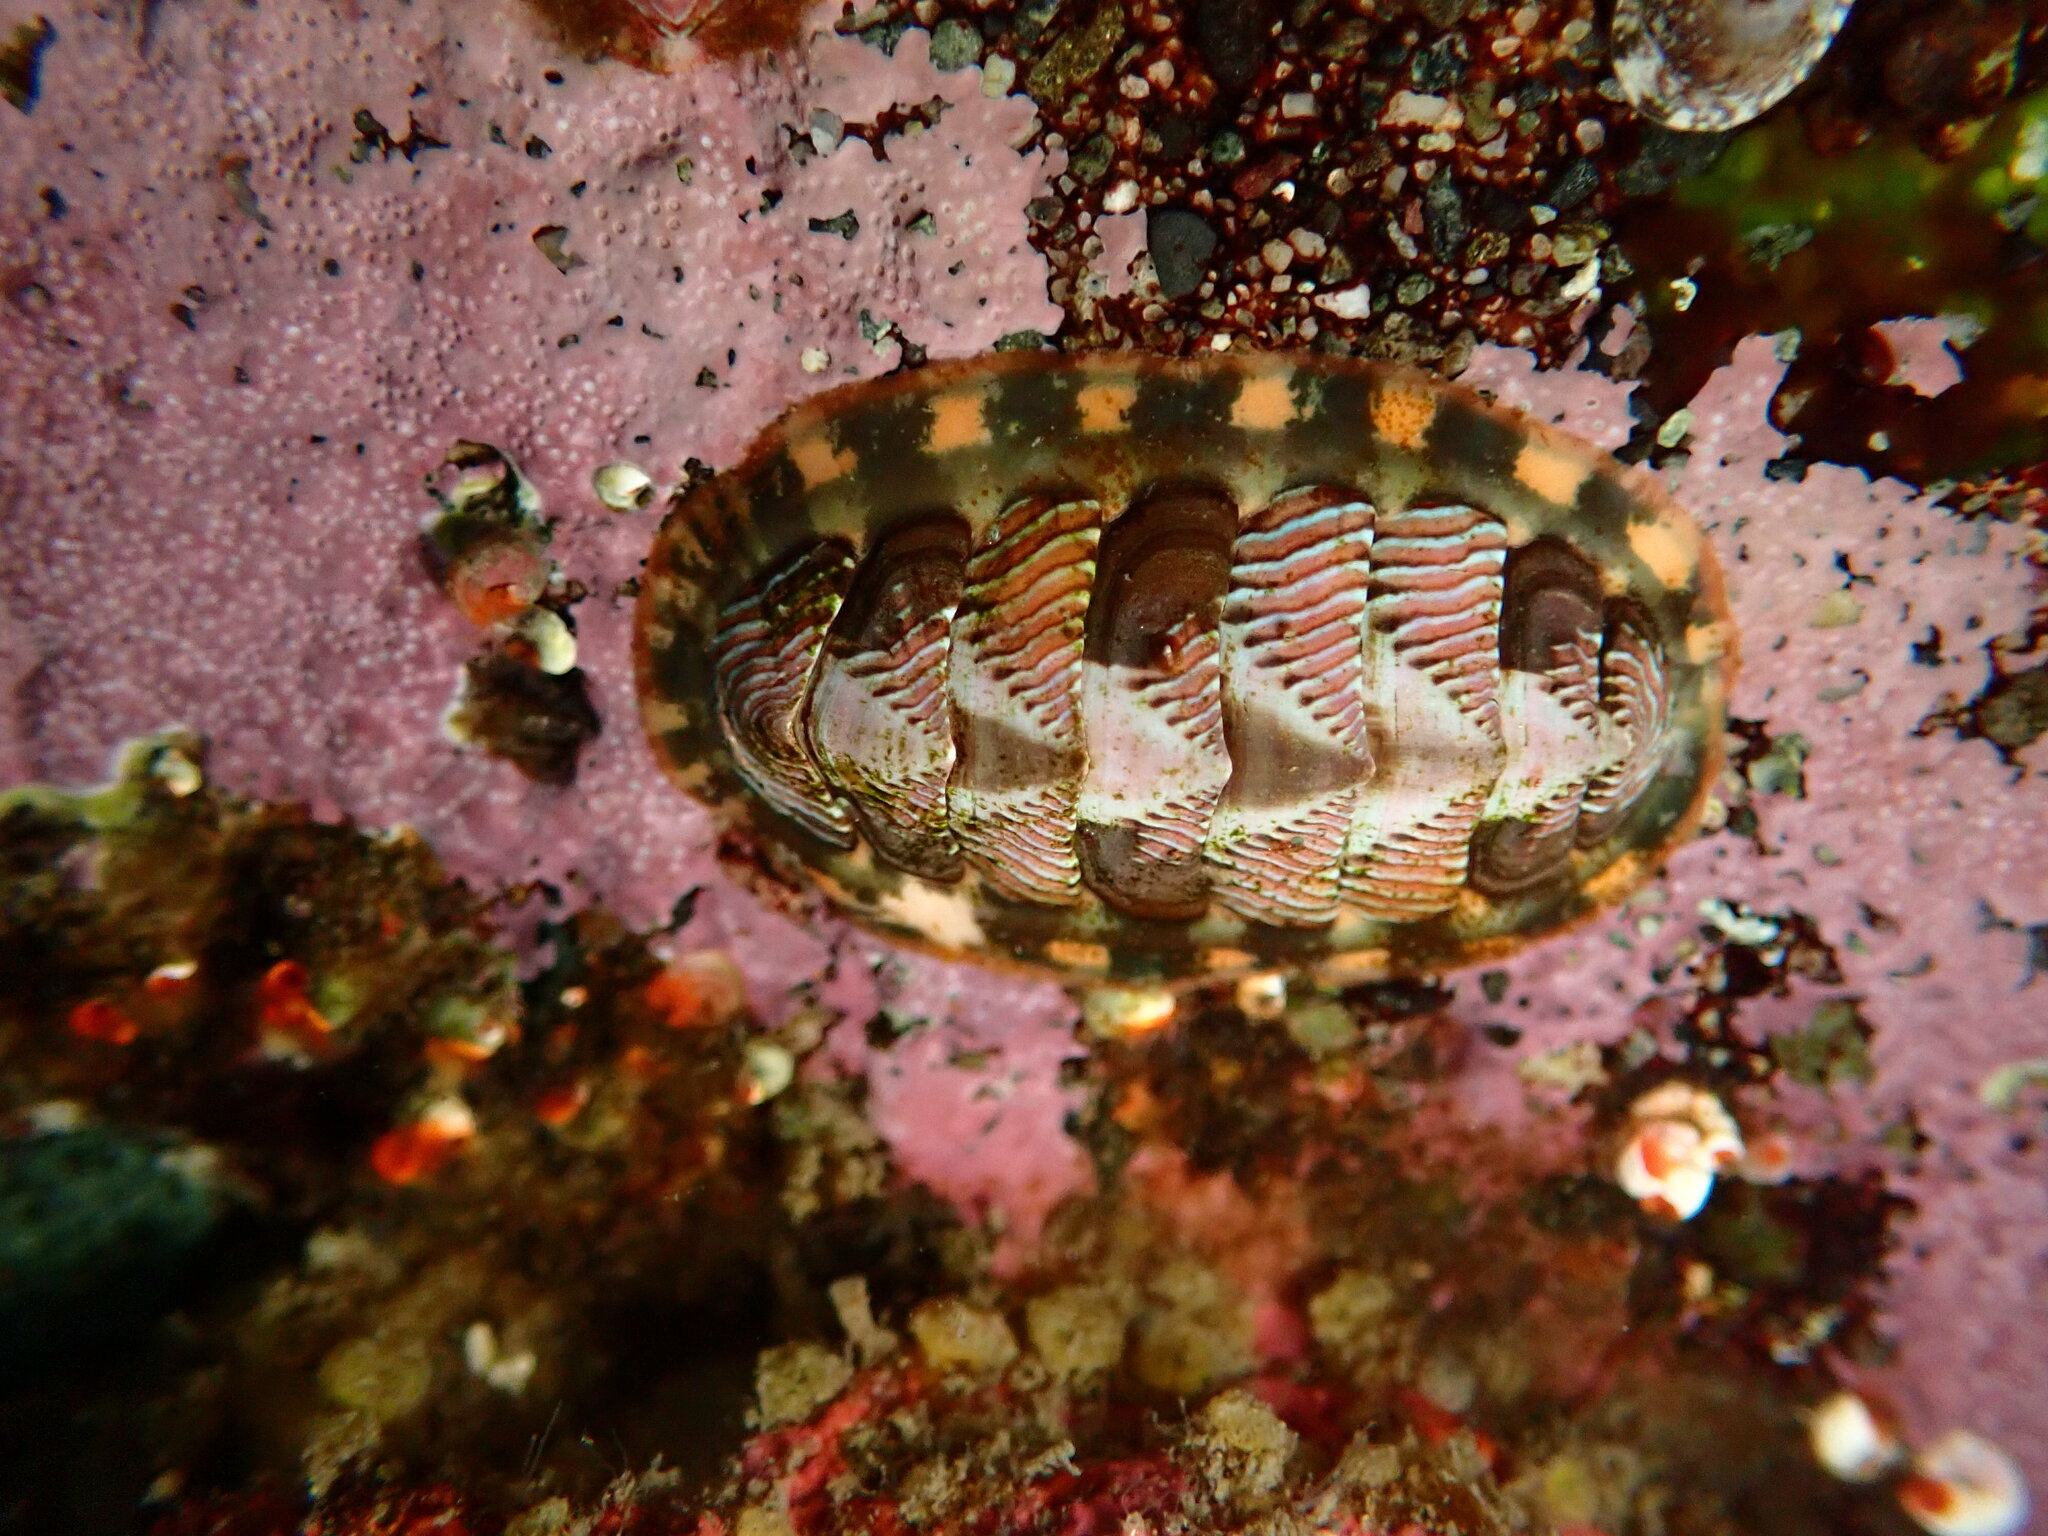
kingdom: Animalia
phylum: Mollusca
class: Polyplacophora
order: Chitonida
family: Tonicellidae
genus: Tonicella
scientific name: Tonicella lineata
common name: Lined chiton
